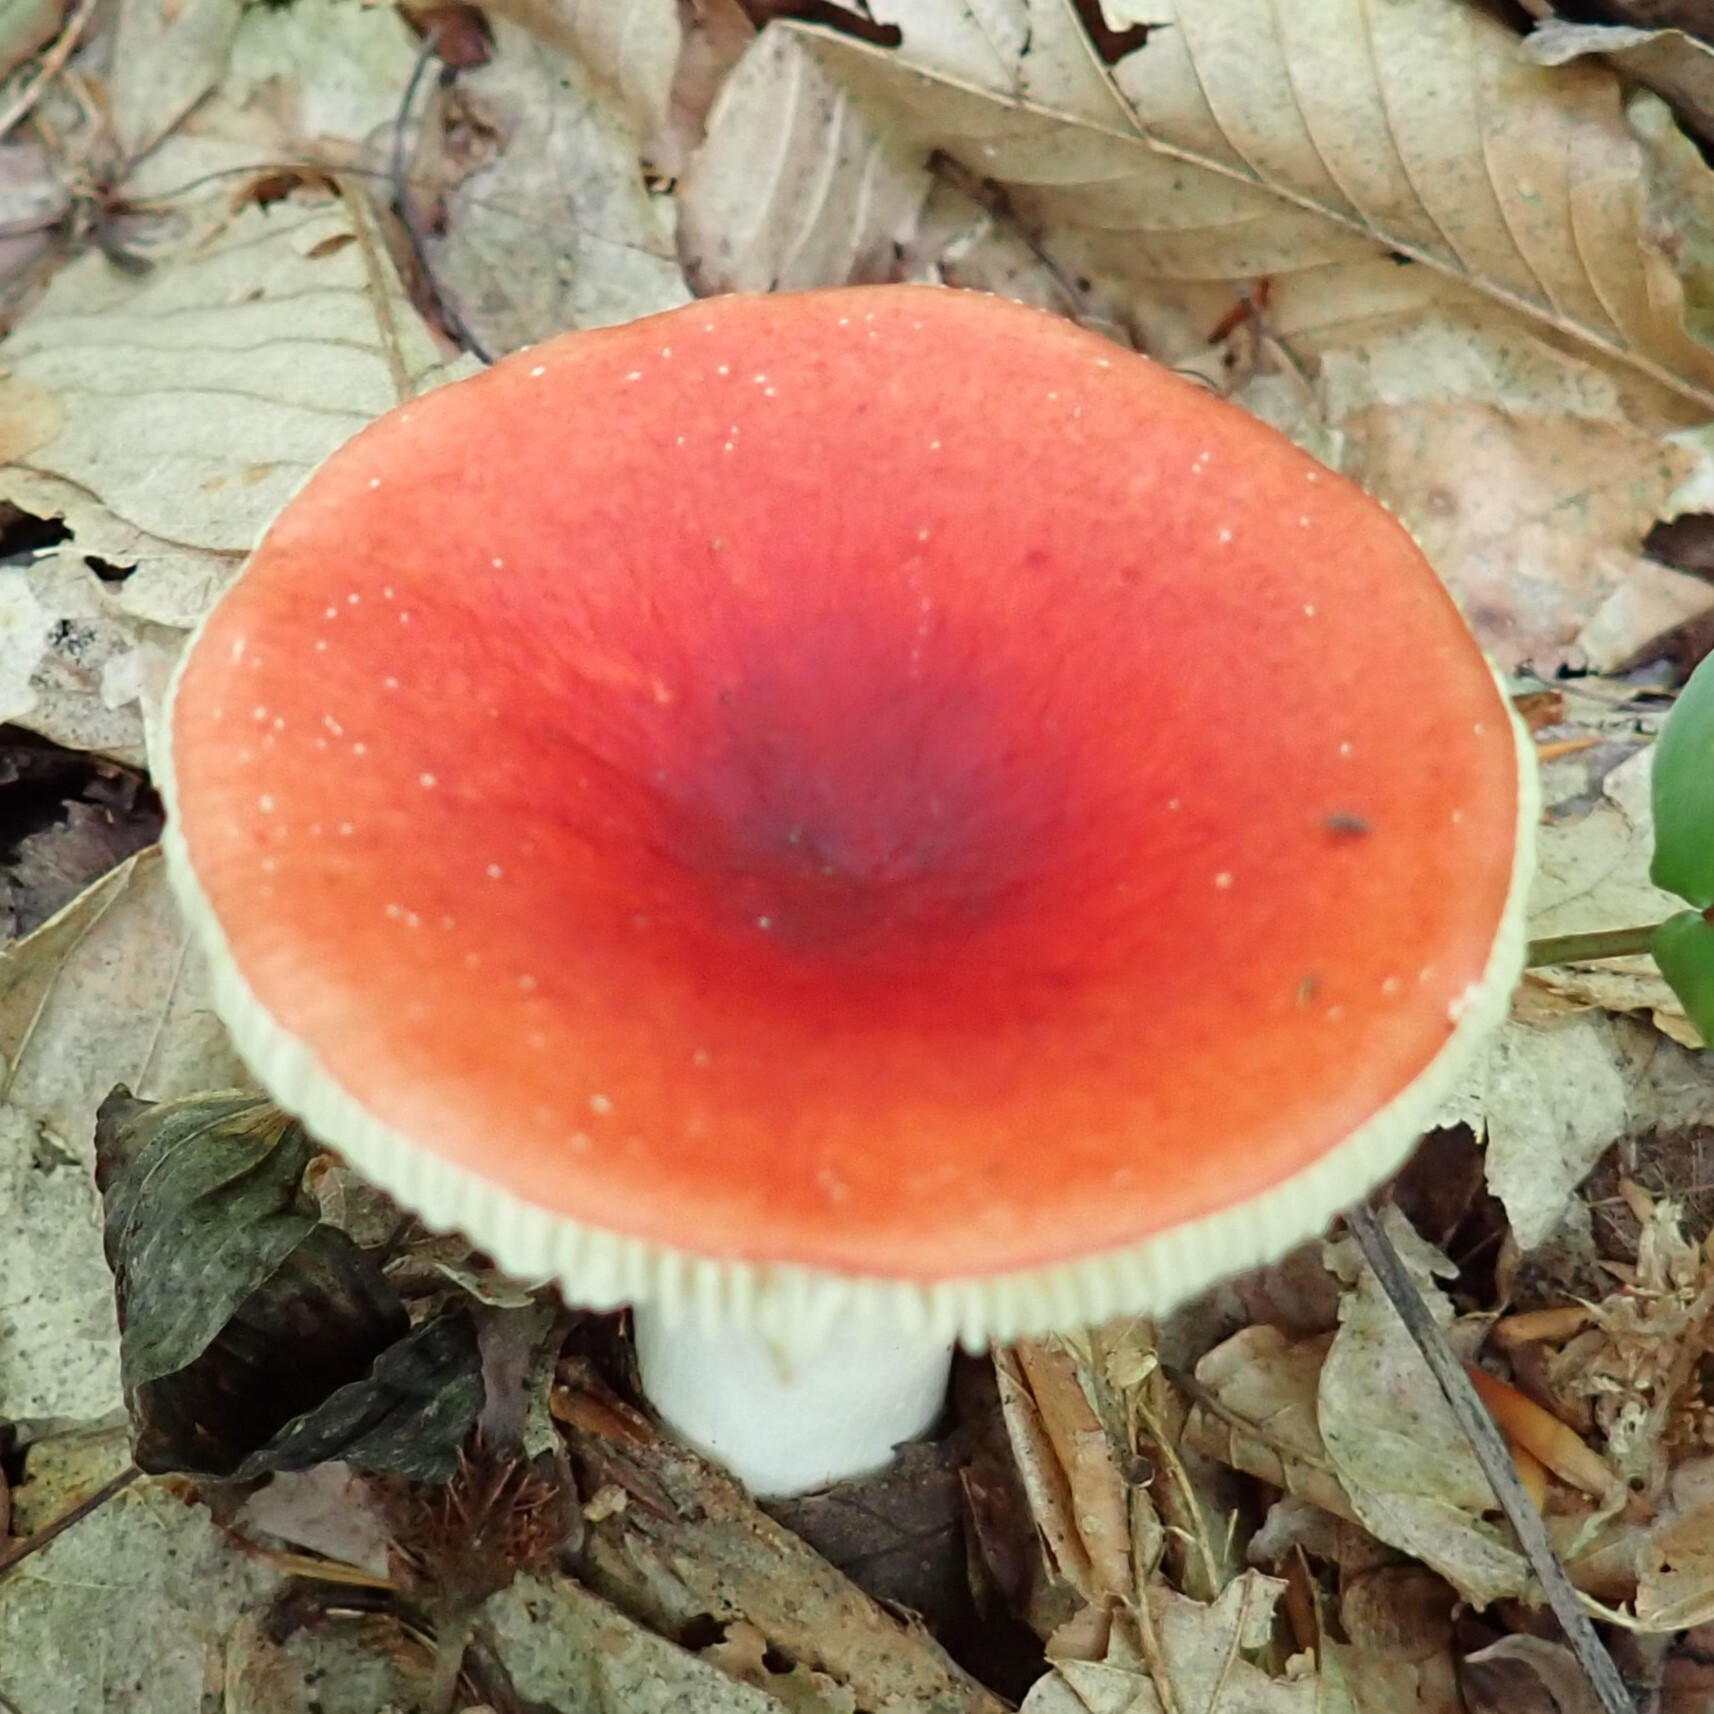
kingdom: Fungi
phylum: Basidiomycota
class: Agaricomycetes
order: Russulales
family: Russulaceae
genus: Russula
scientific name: Russula
